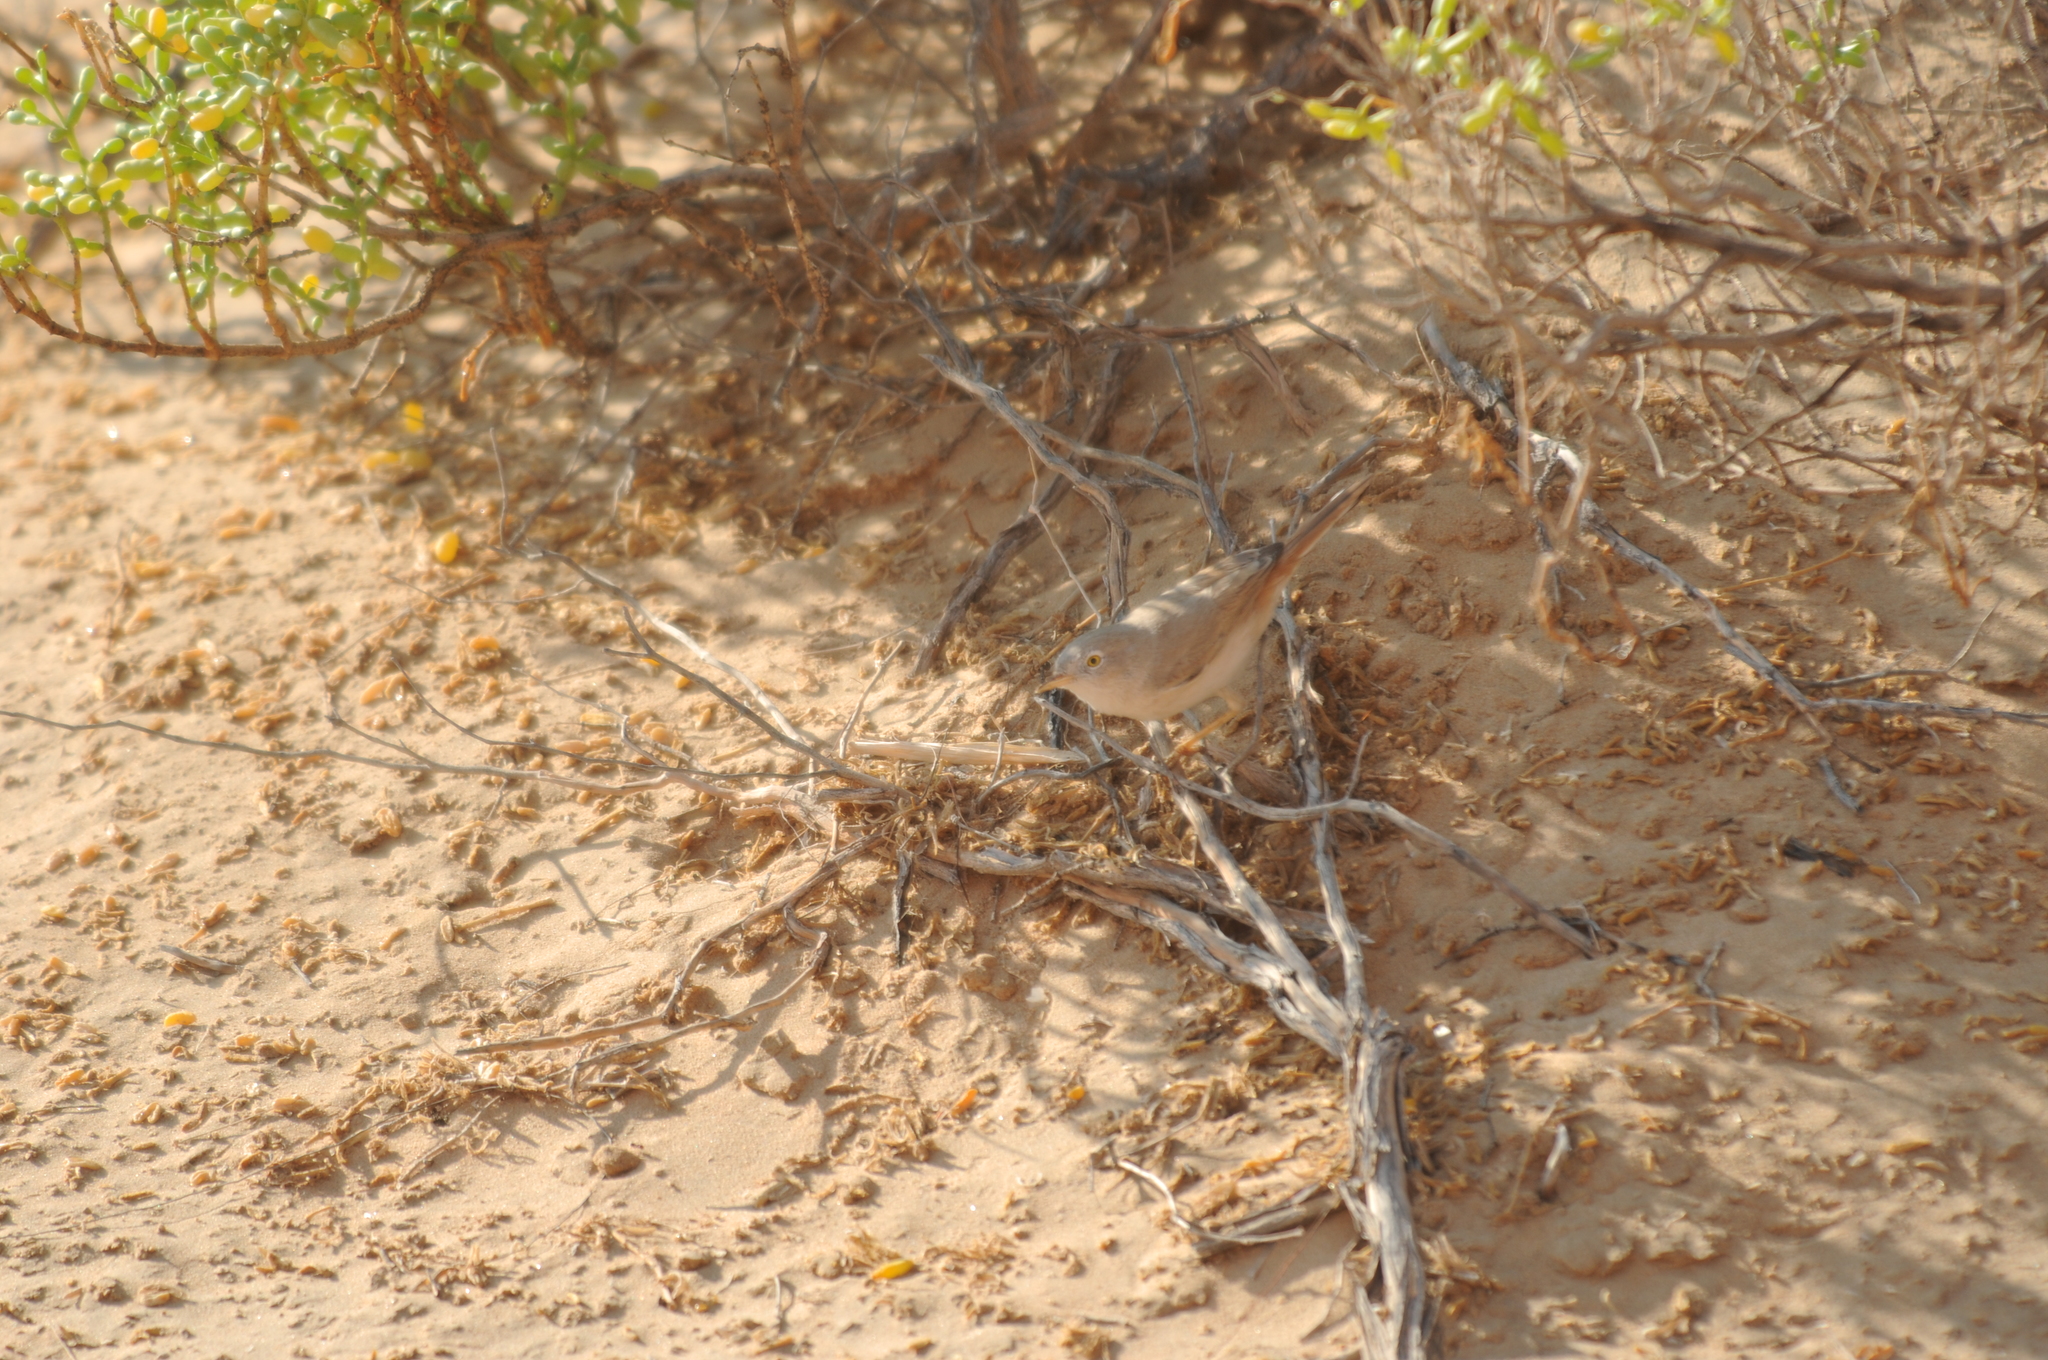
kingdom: Animalia
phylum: Chordata
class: Aves
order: Passeriformes
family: Sylviidae
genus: Sylvia
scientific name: Sylvia nana
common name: Asian desert warbler
